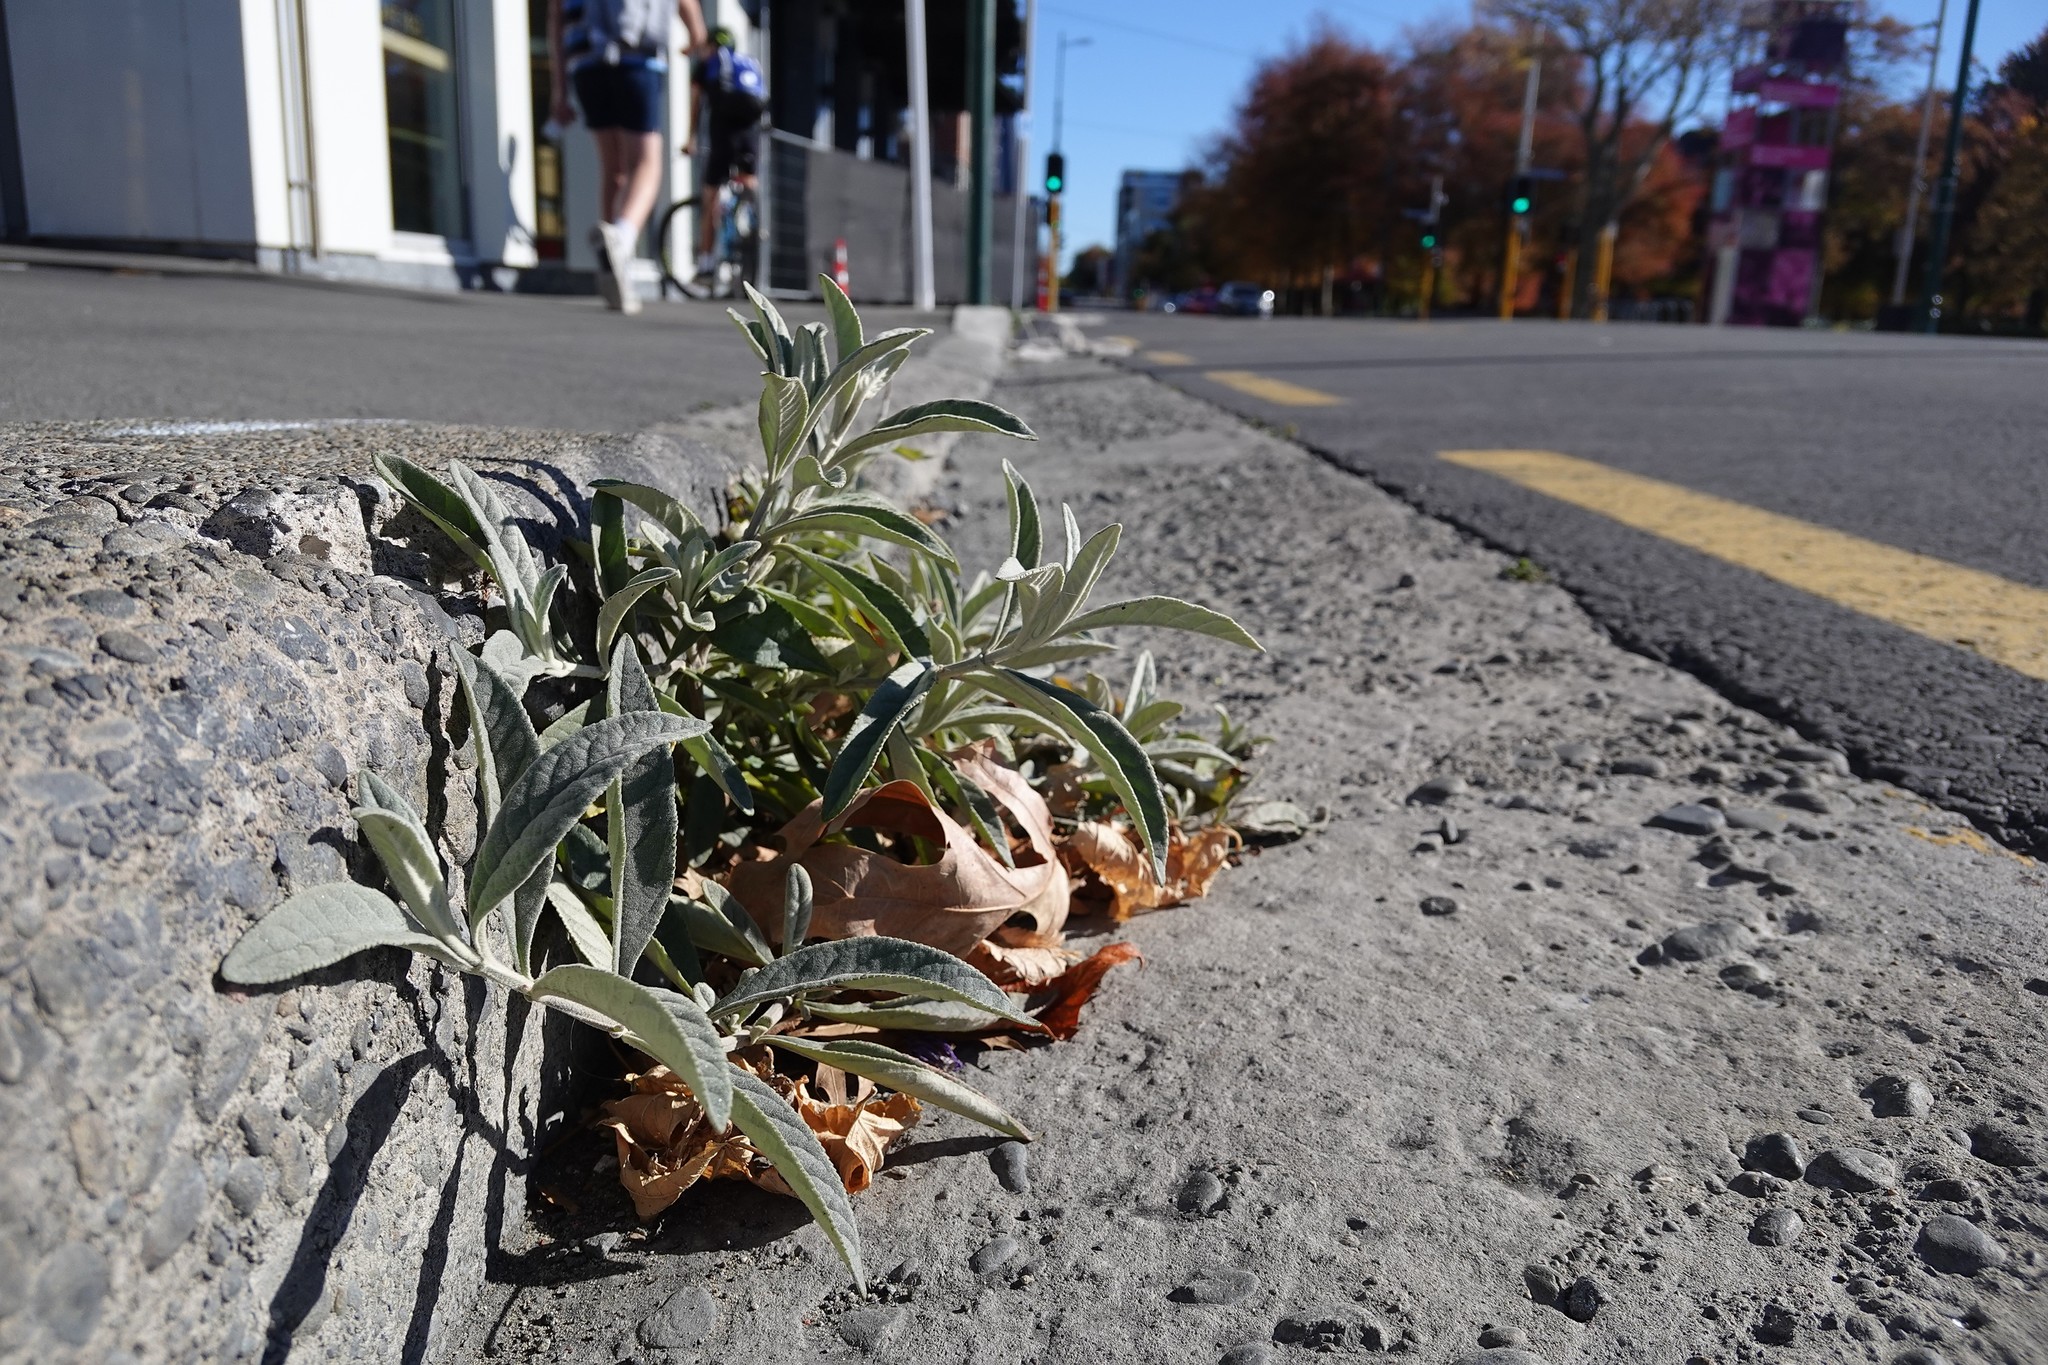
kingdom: Plantae
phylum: Tracheophyta
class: Magnoliopsida
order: Lamiales
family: Scrophulariaceae
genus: Buddleja
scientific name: Buddleja davidii
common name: Butterfly-bush
